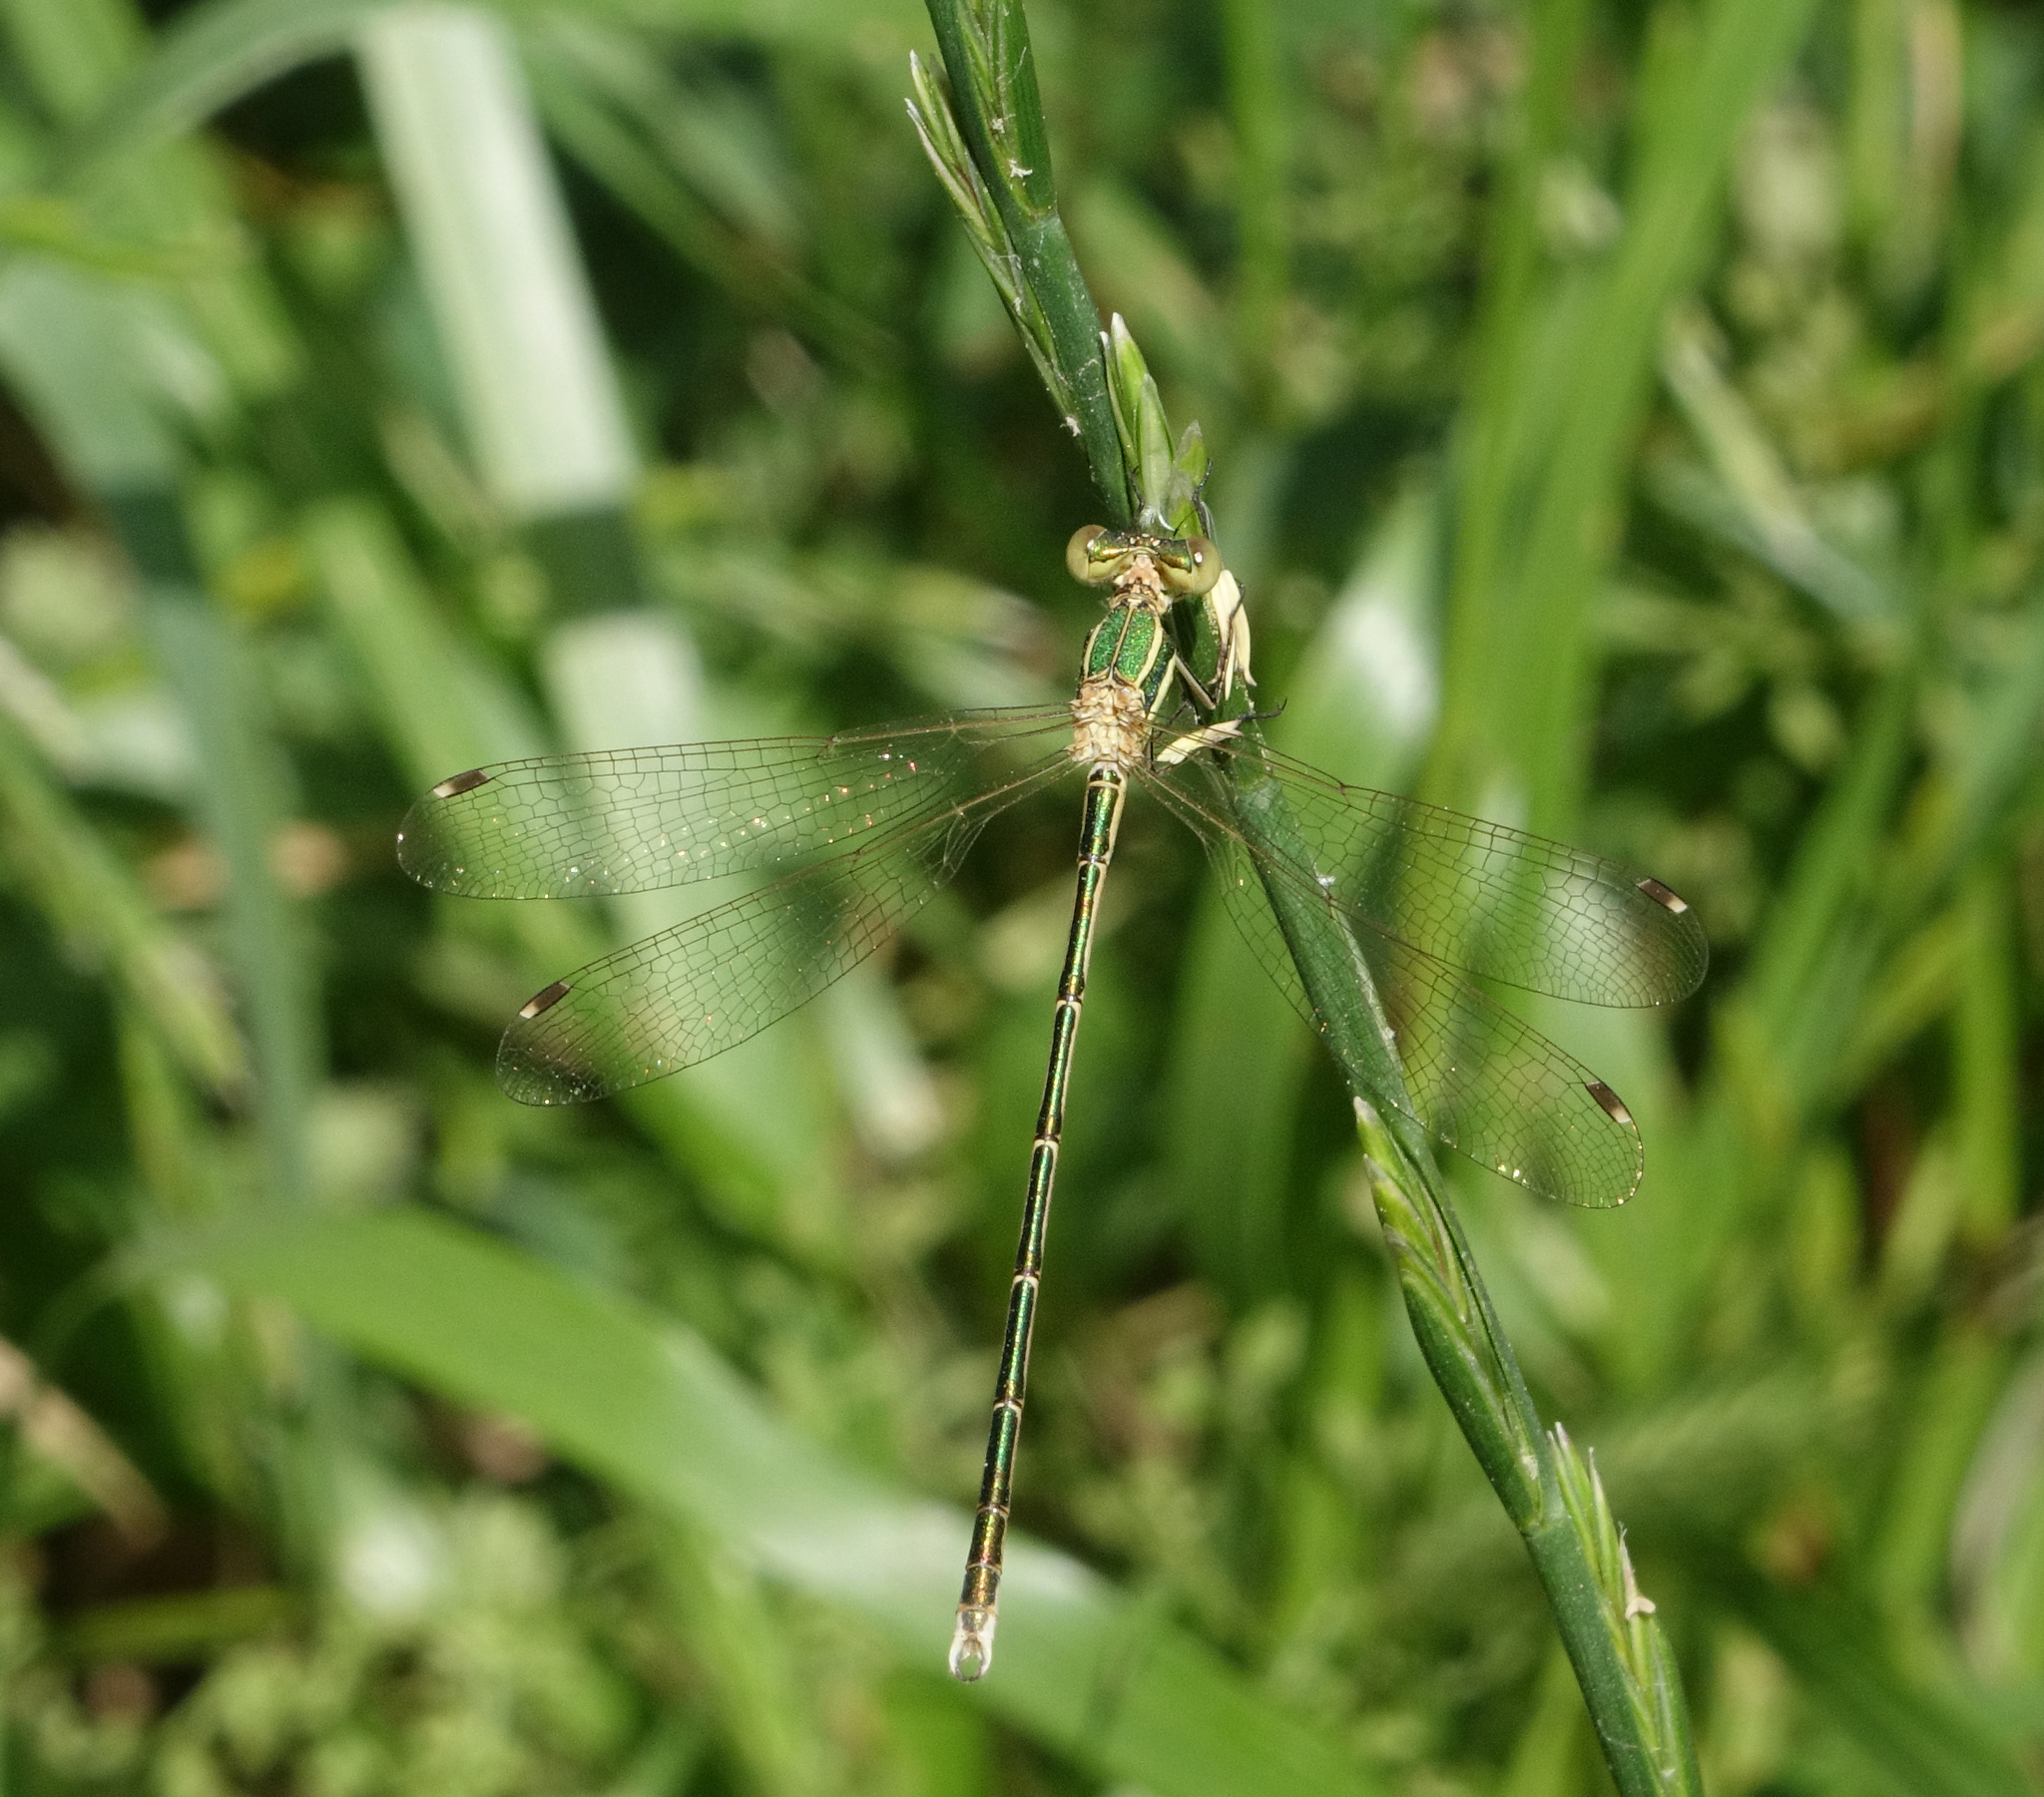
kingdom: Animalia
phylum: Arthropoda
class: Insecta
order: Odonata
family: Lestidae
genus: Lestes
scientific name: Lestes barbarus
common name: Migrant spreadwing
